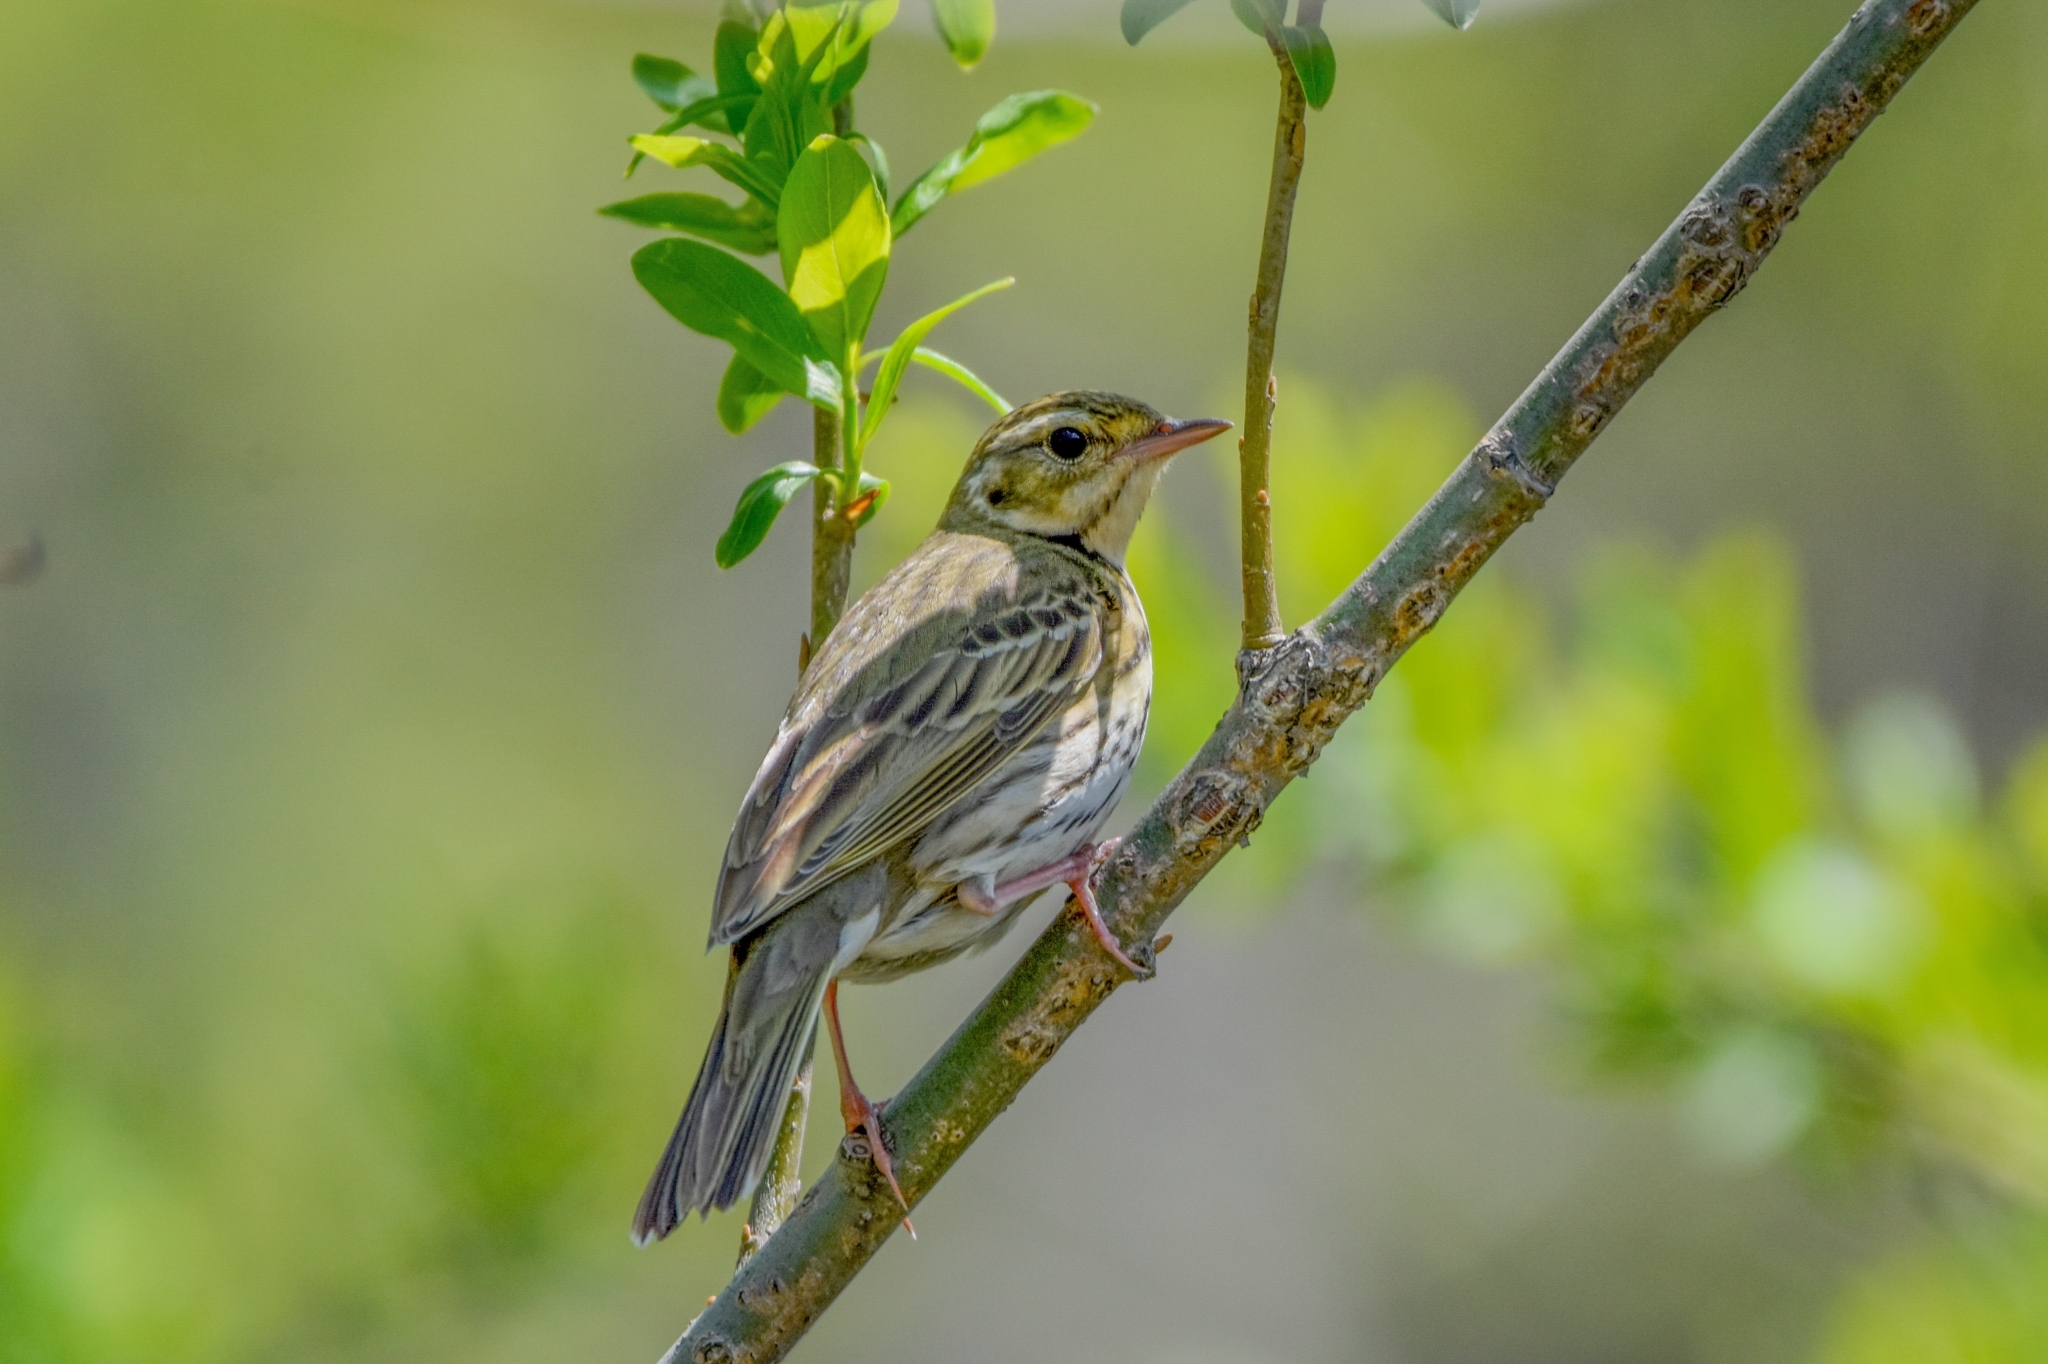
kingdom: Animalia
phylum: Chordata
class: Aves
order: Passeriformes
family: Motacillidae
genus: Anthus
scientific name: Anthus hodgsoni
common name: Olive-backed pipit
